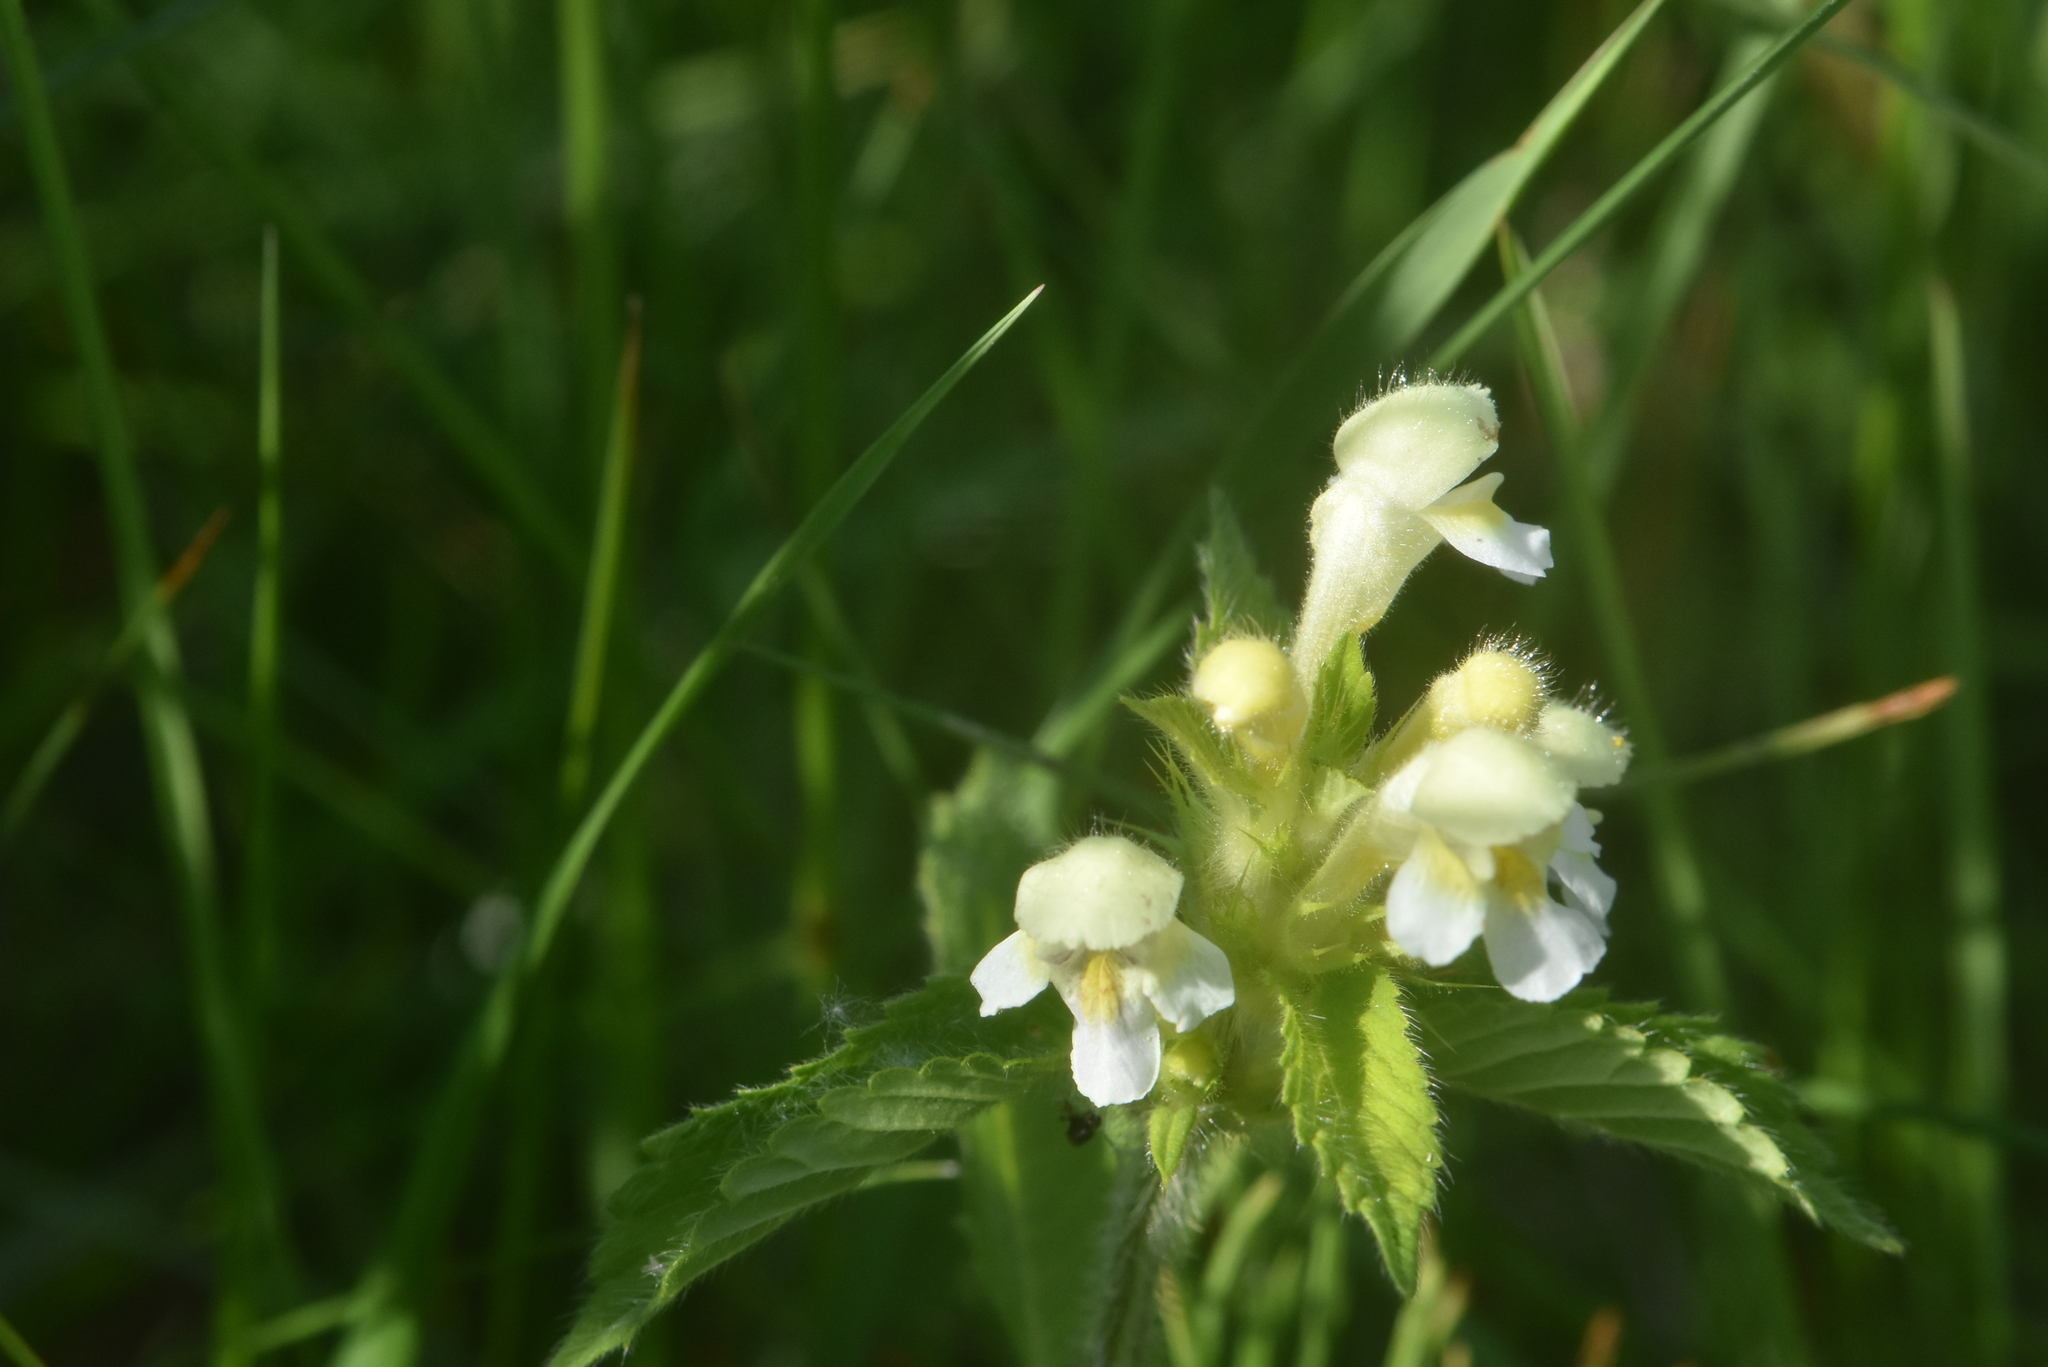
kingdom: Plantae
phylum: Tracheophyta
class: Magnoliopsida
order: Lamiales
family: Lamiaceae
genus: Galeopsis
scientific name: Galeopsis speciosa
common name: Large-flowered hemp-nettle
